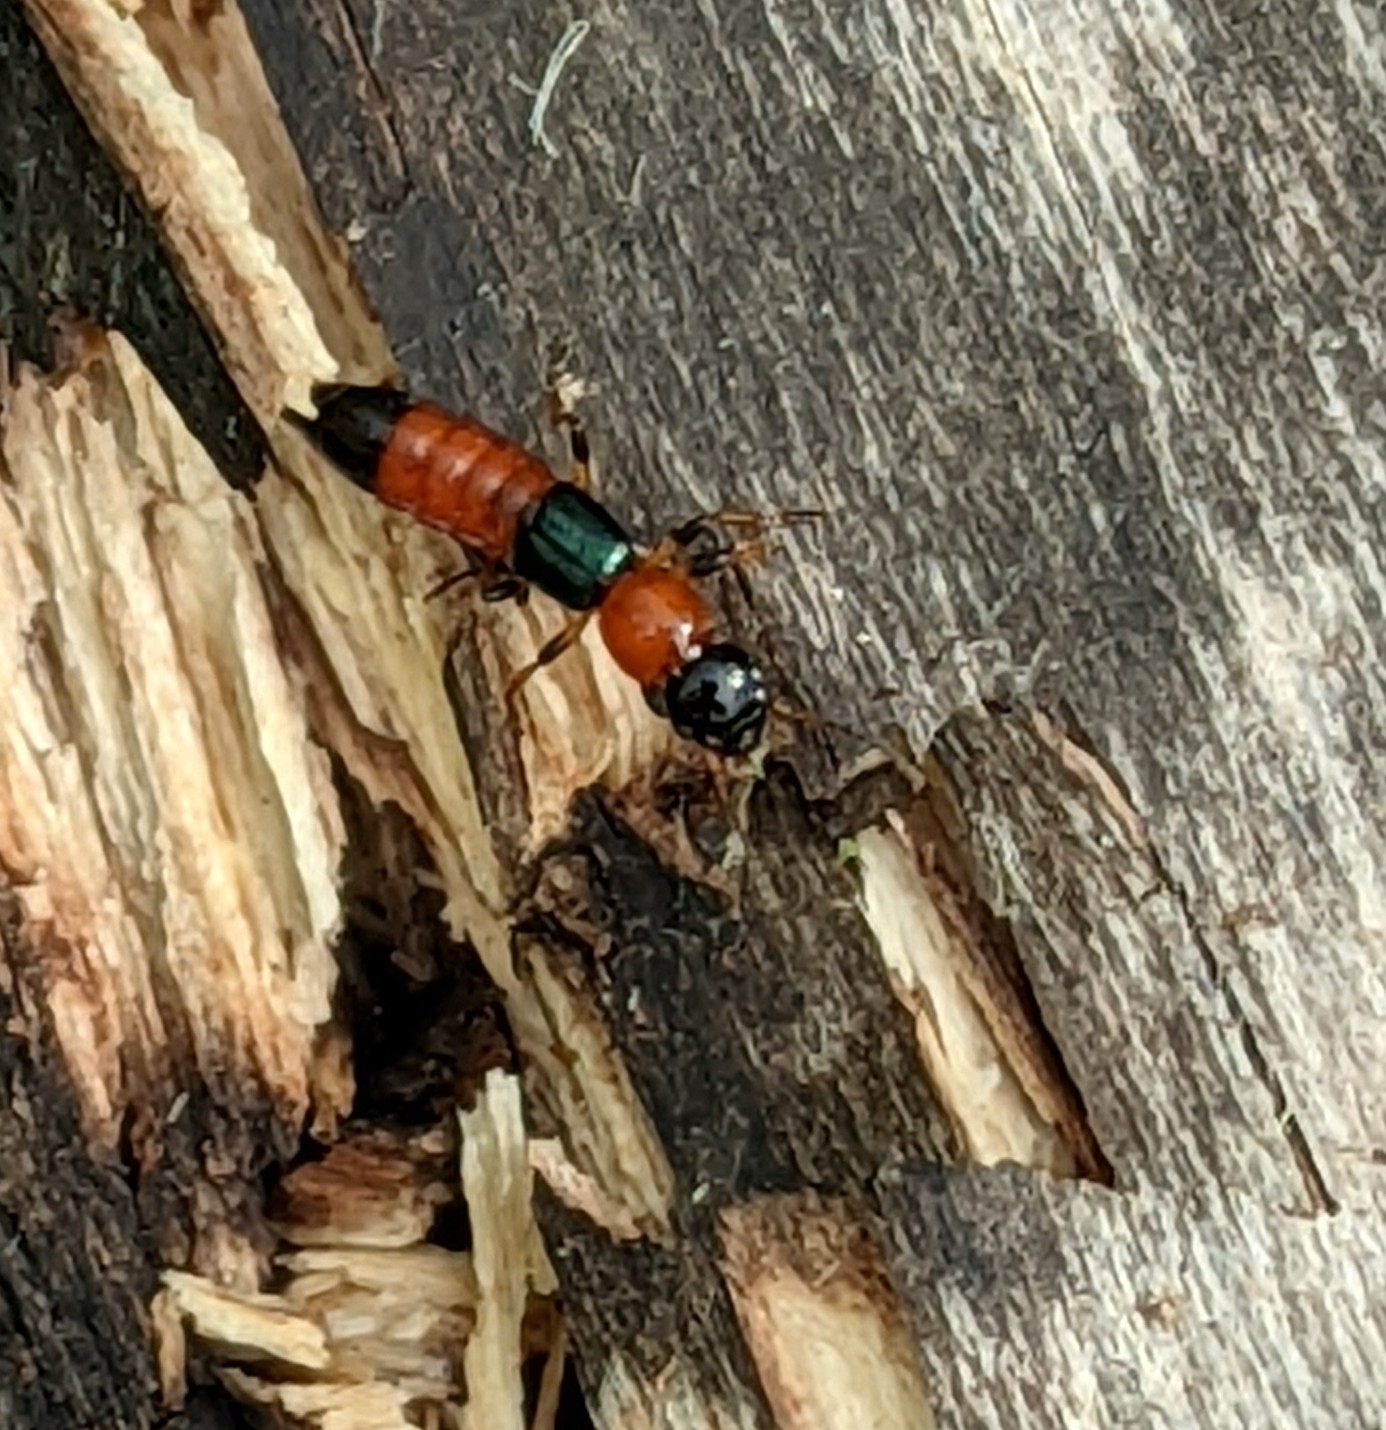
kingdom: Animalia
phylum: Arthropoda
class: Insecta
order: Coleoptera
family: Staphylinidae
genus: Paederus
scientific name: Paederus littoralis
